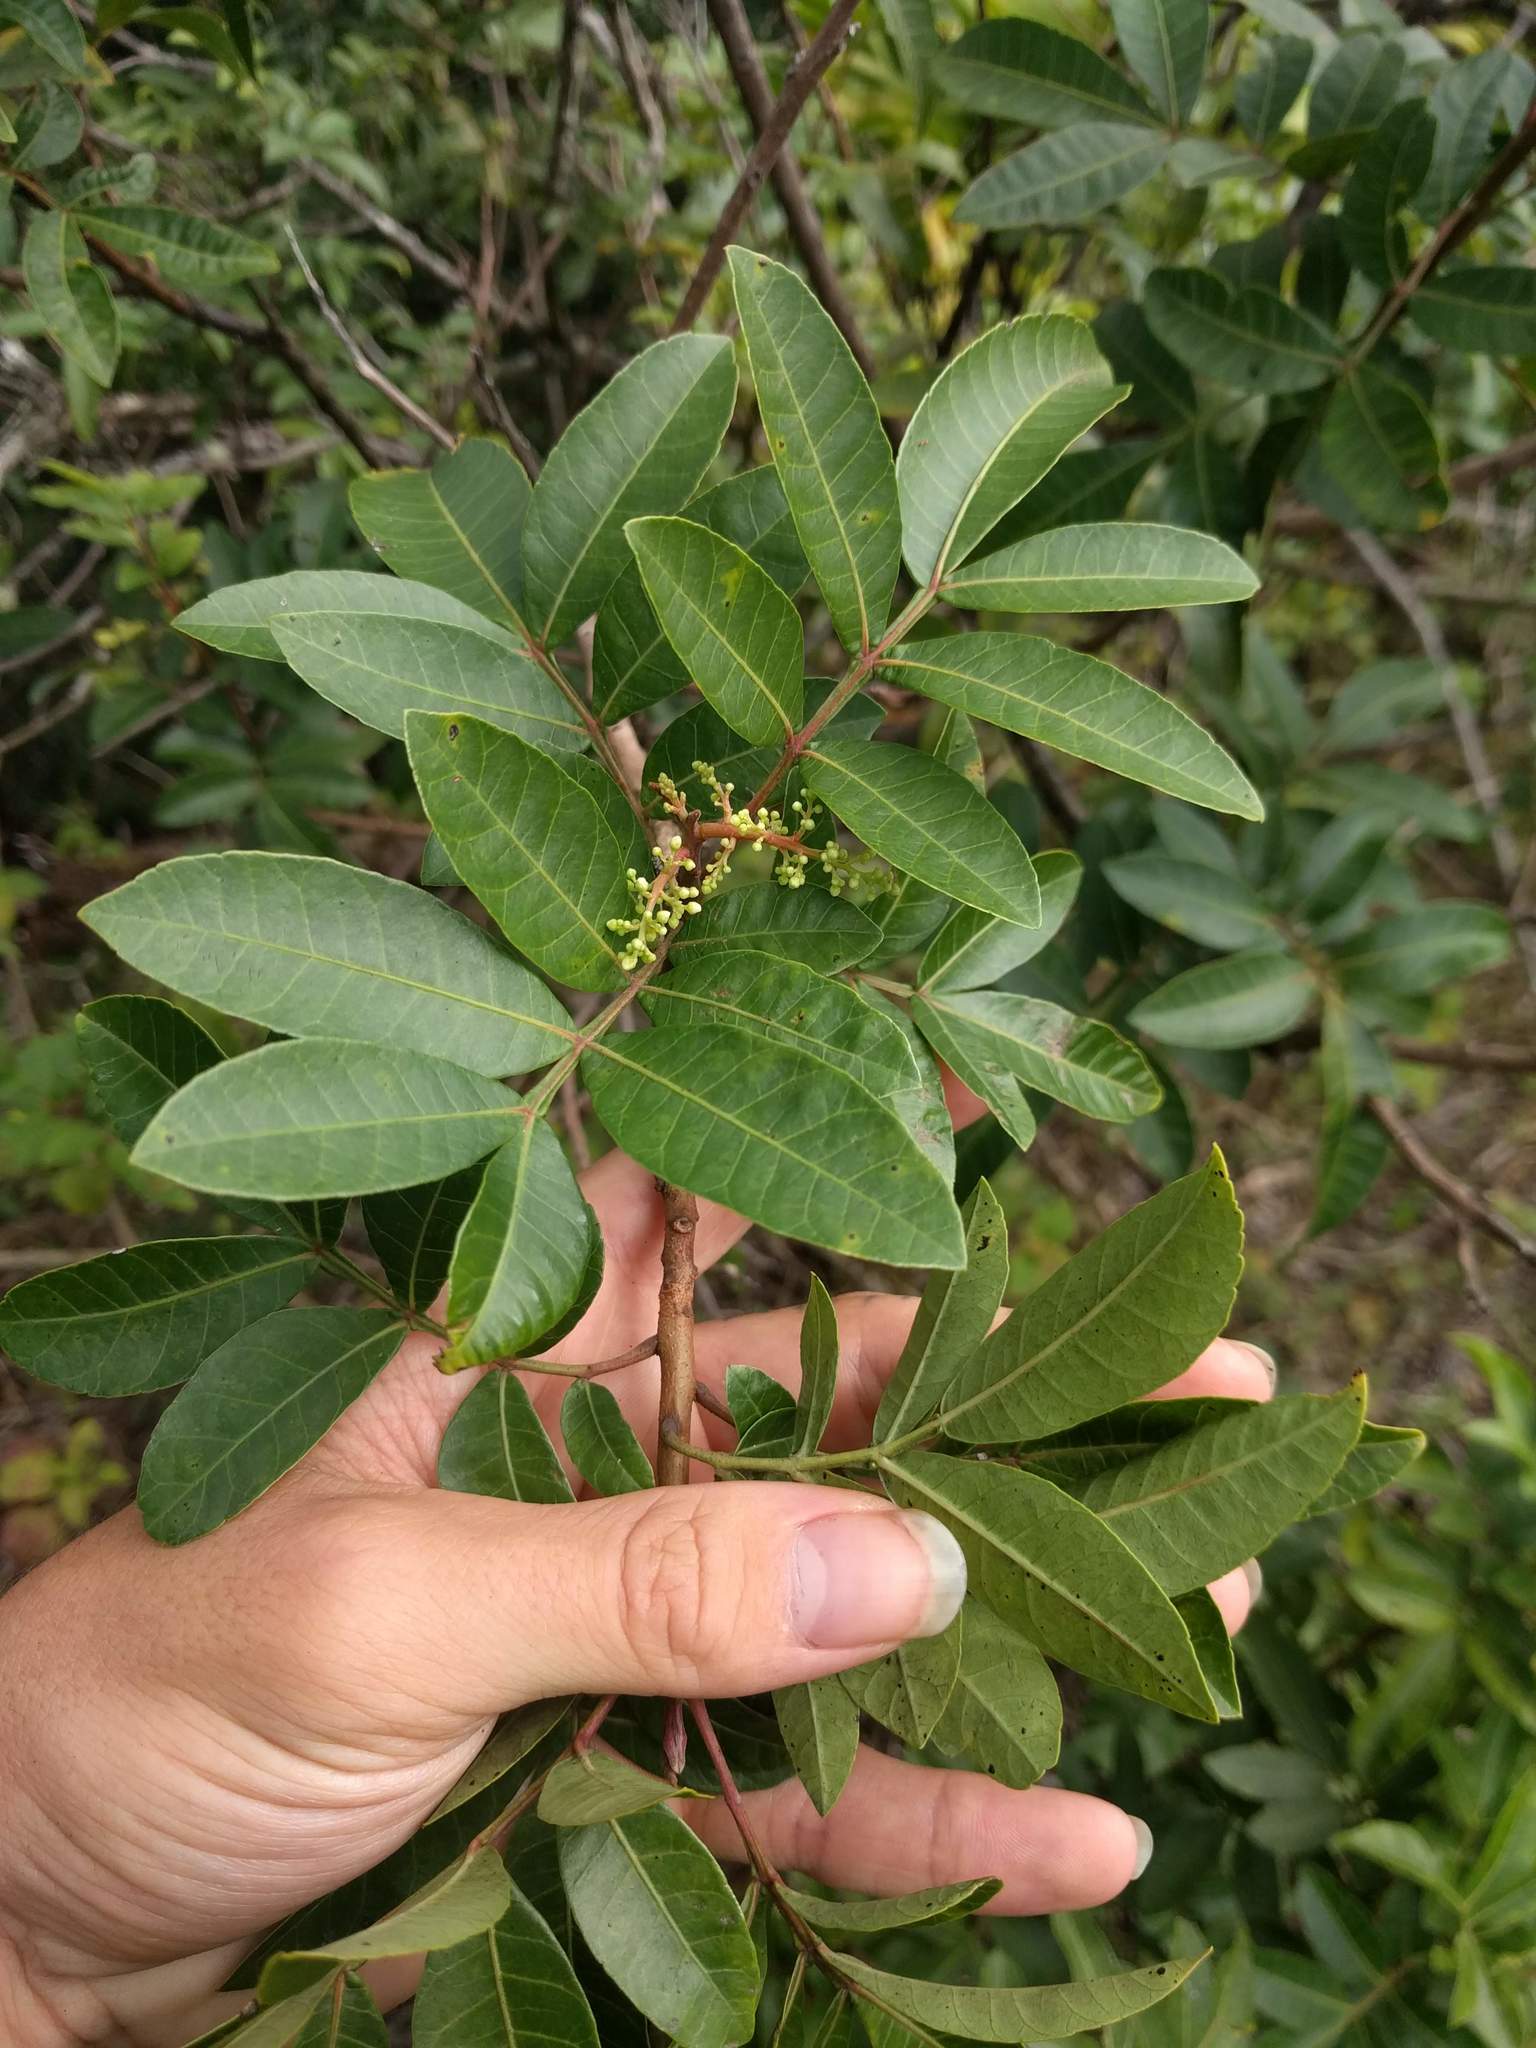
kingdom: Plantae
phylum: Tracheophyta
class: Magnoliopsida
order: Sapindales
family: Anacardiaceae
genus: Schinus
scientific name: Schinus terebinthifolia
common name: Brazilian peppertree
